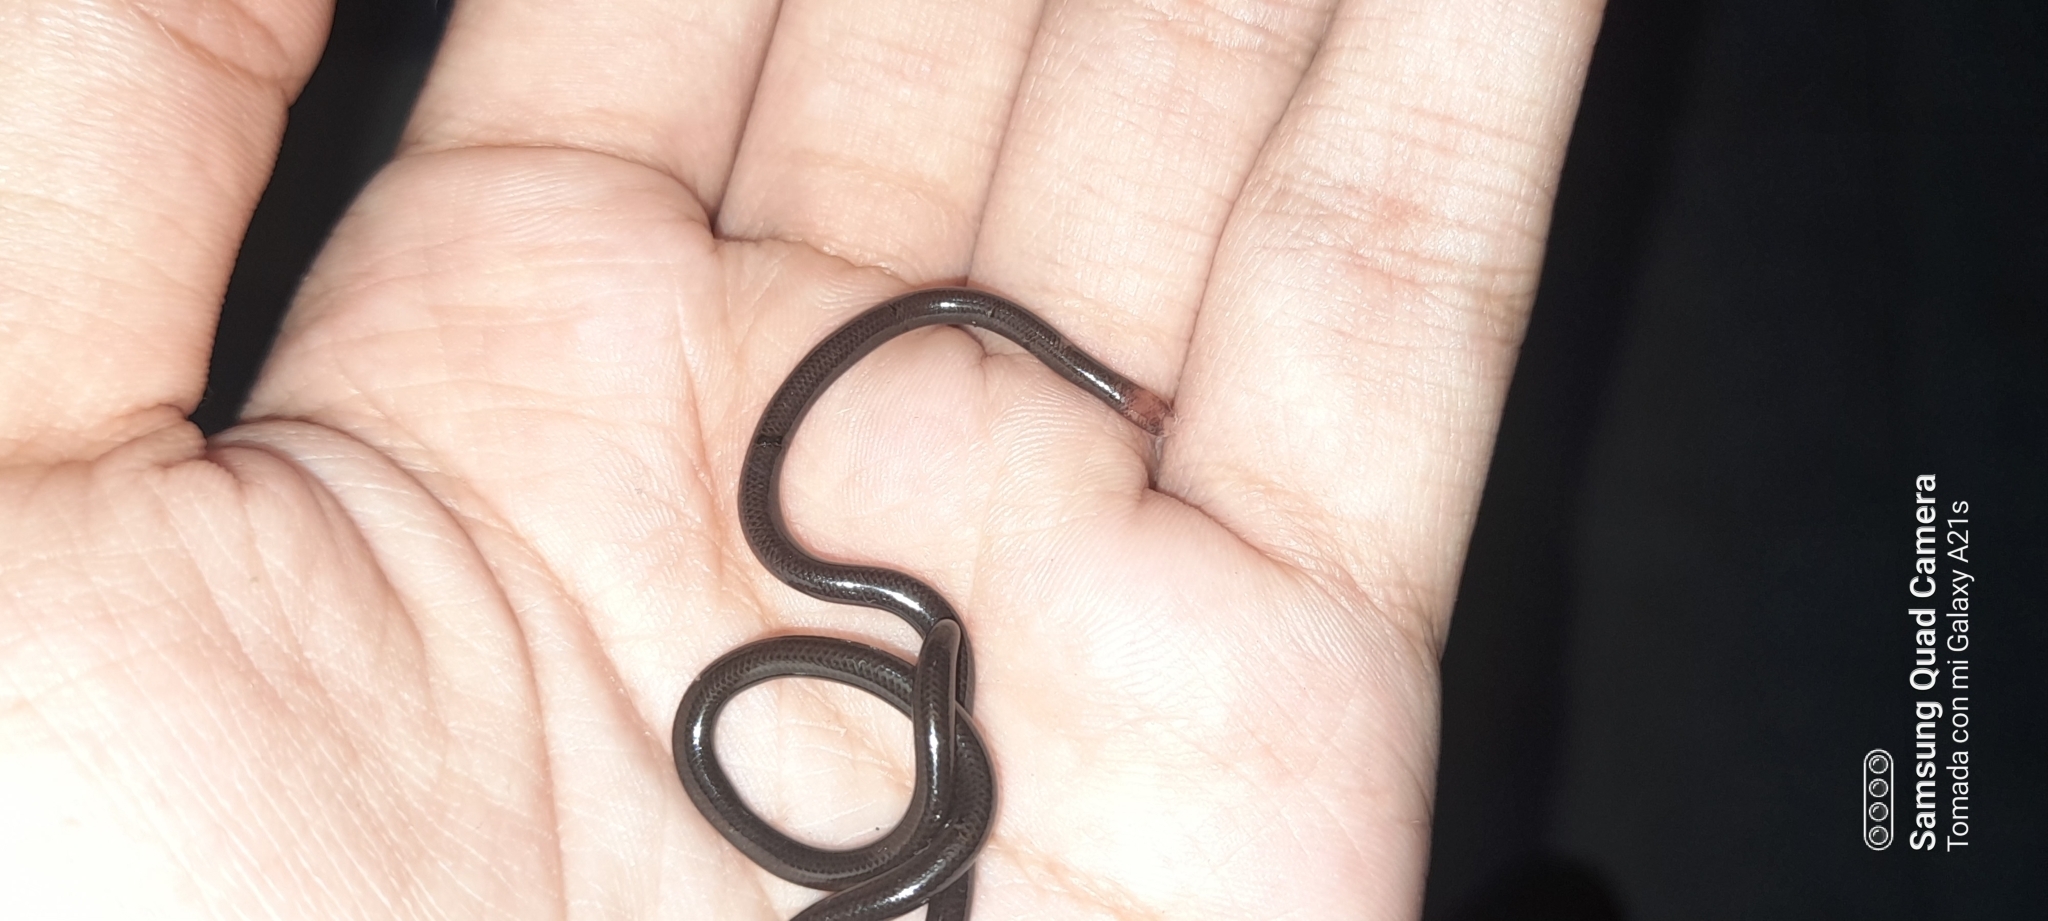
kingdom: Animalia
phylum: Chordata
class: Squamata
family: Anomalepididae
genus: Liotyphlops
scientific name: Liotyphlops albirostris
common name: Whitenose blind snake
